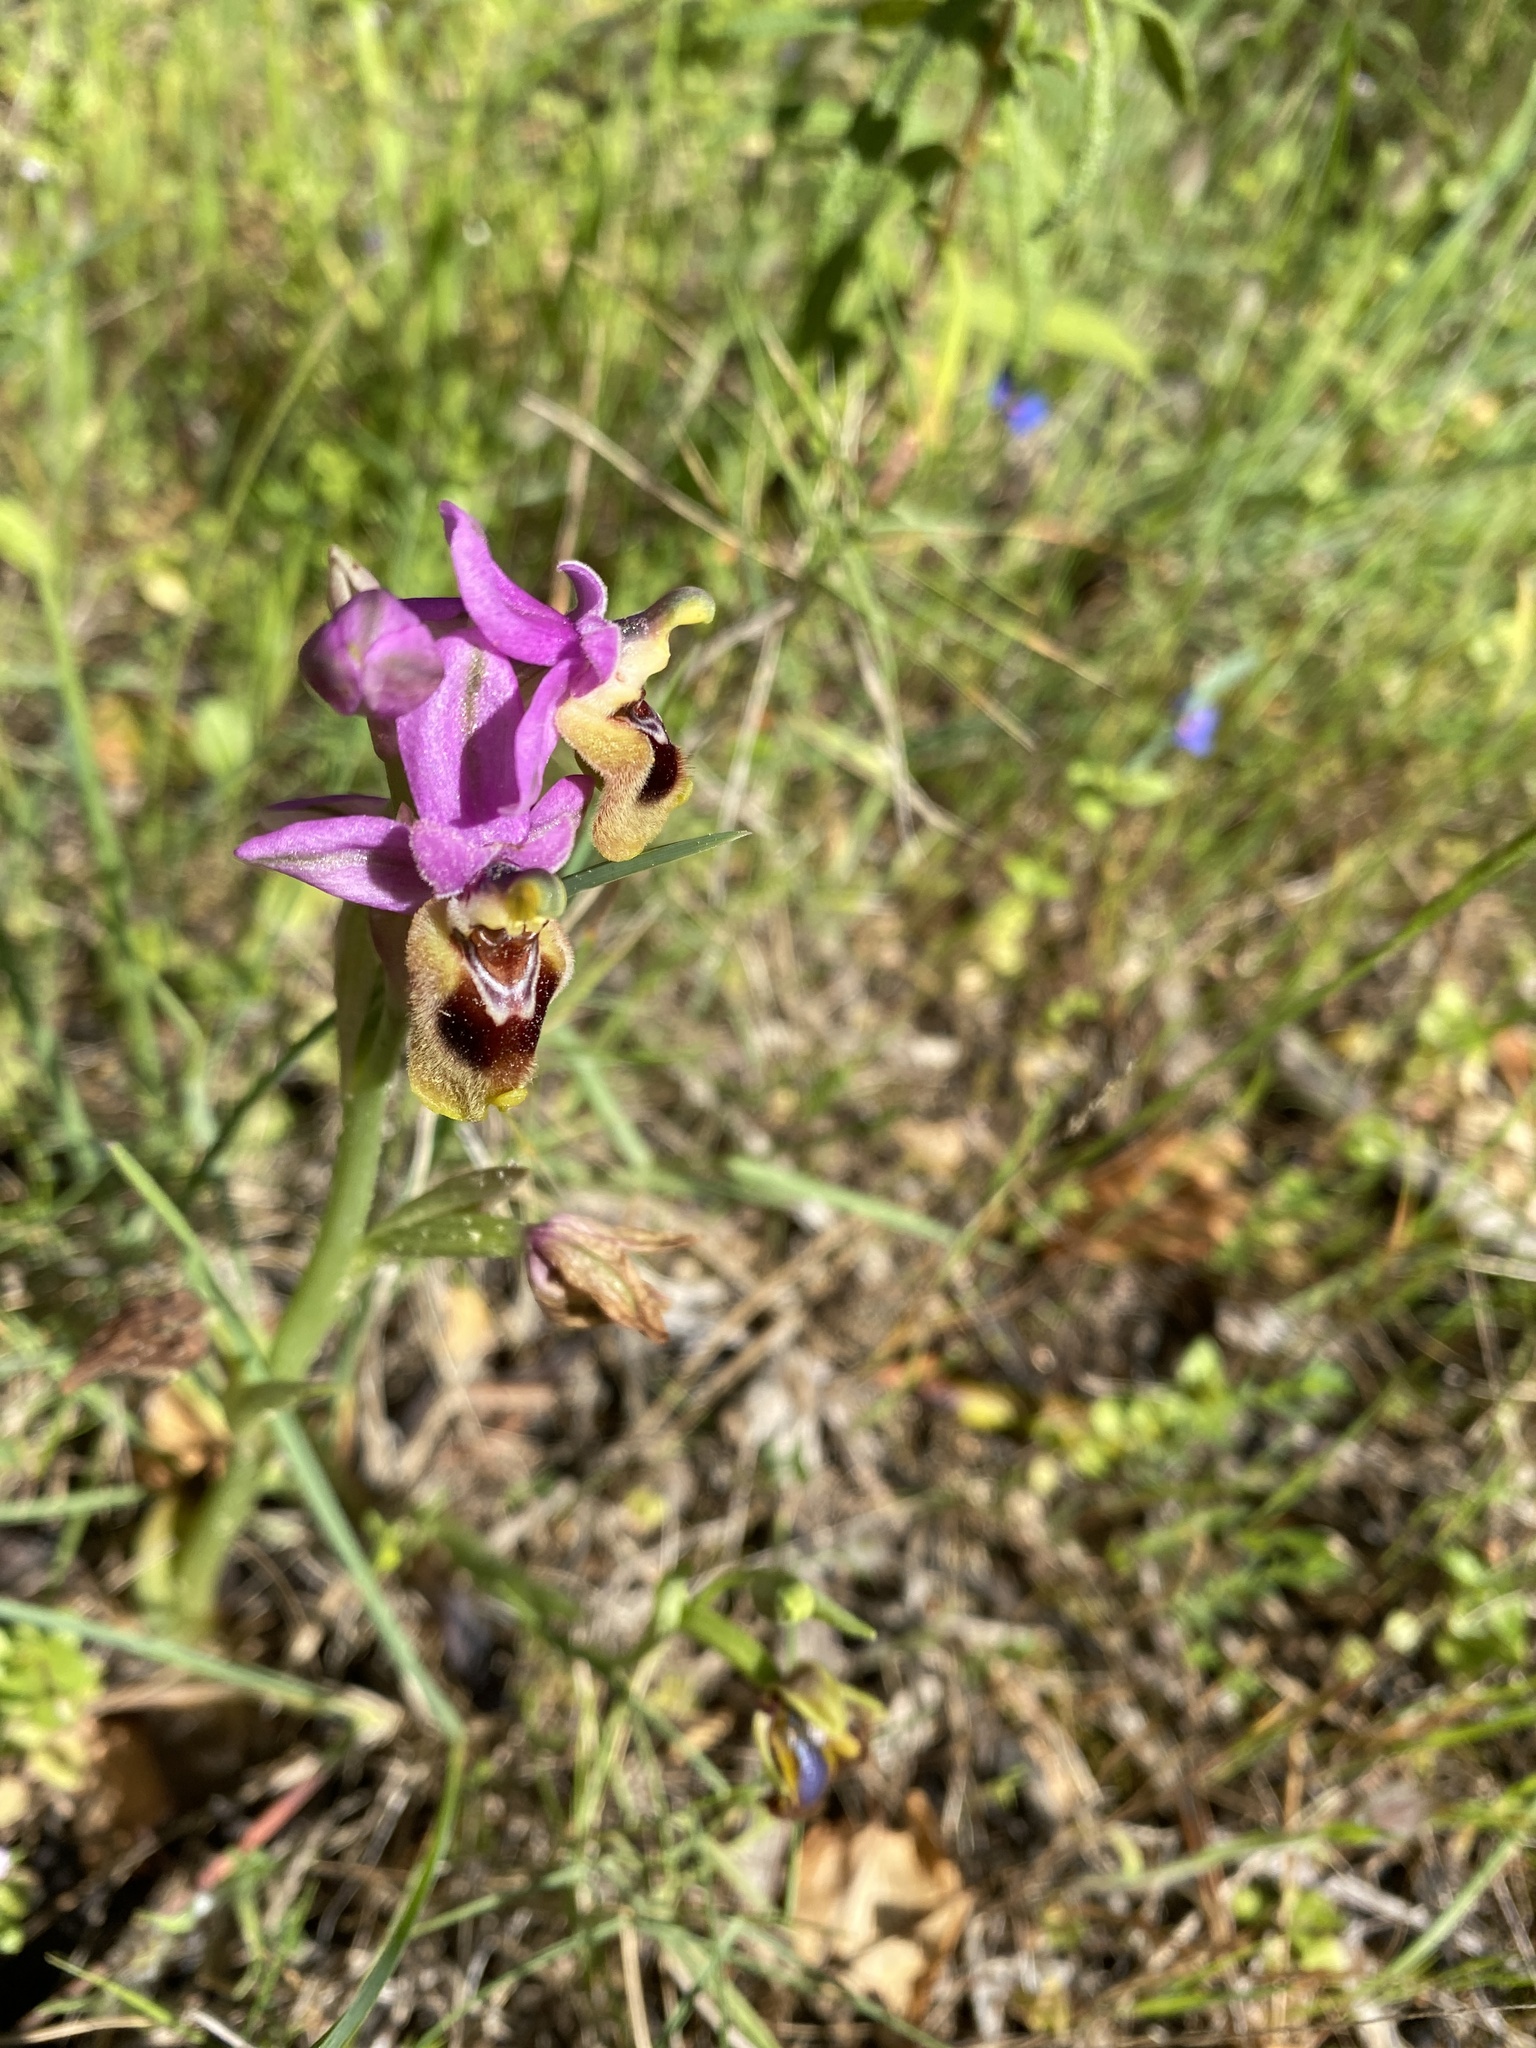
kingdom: Plantae
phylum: Tracheophyta
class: Liliopsida
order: Asparagales
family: Orchidaceae
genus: Ophrys
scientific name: Ophrys tenthredinifera
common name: Sawfly orchid
